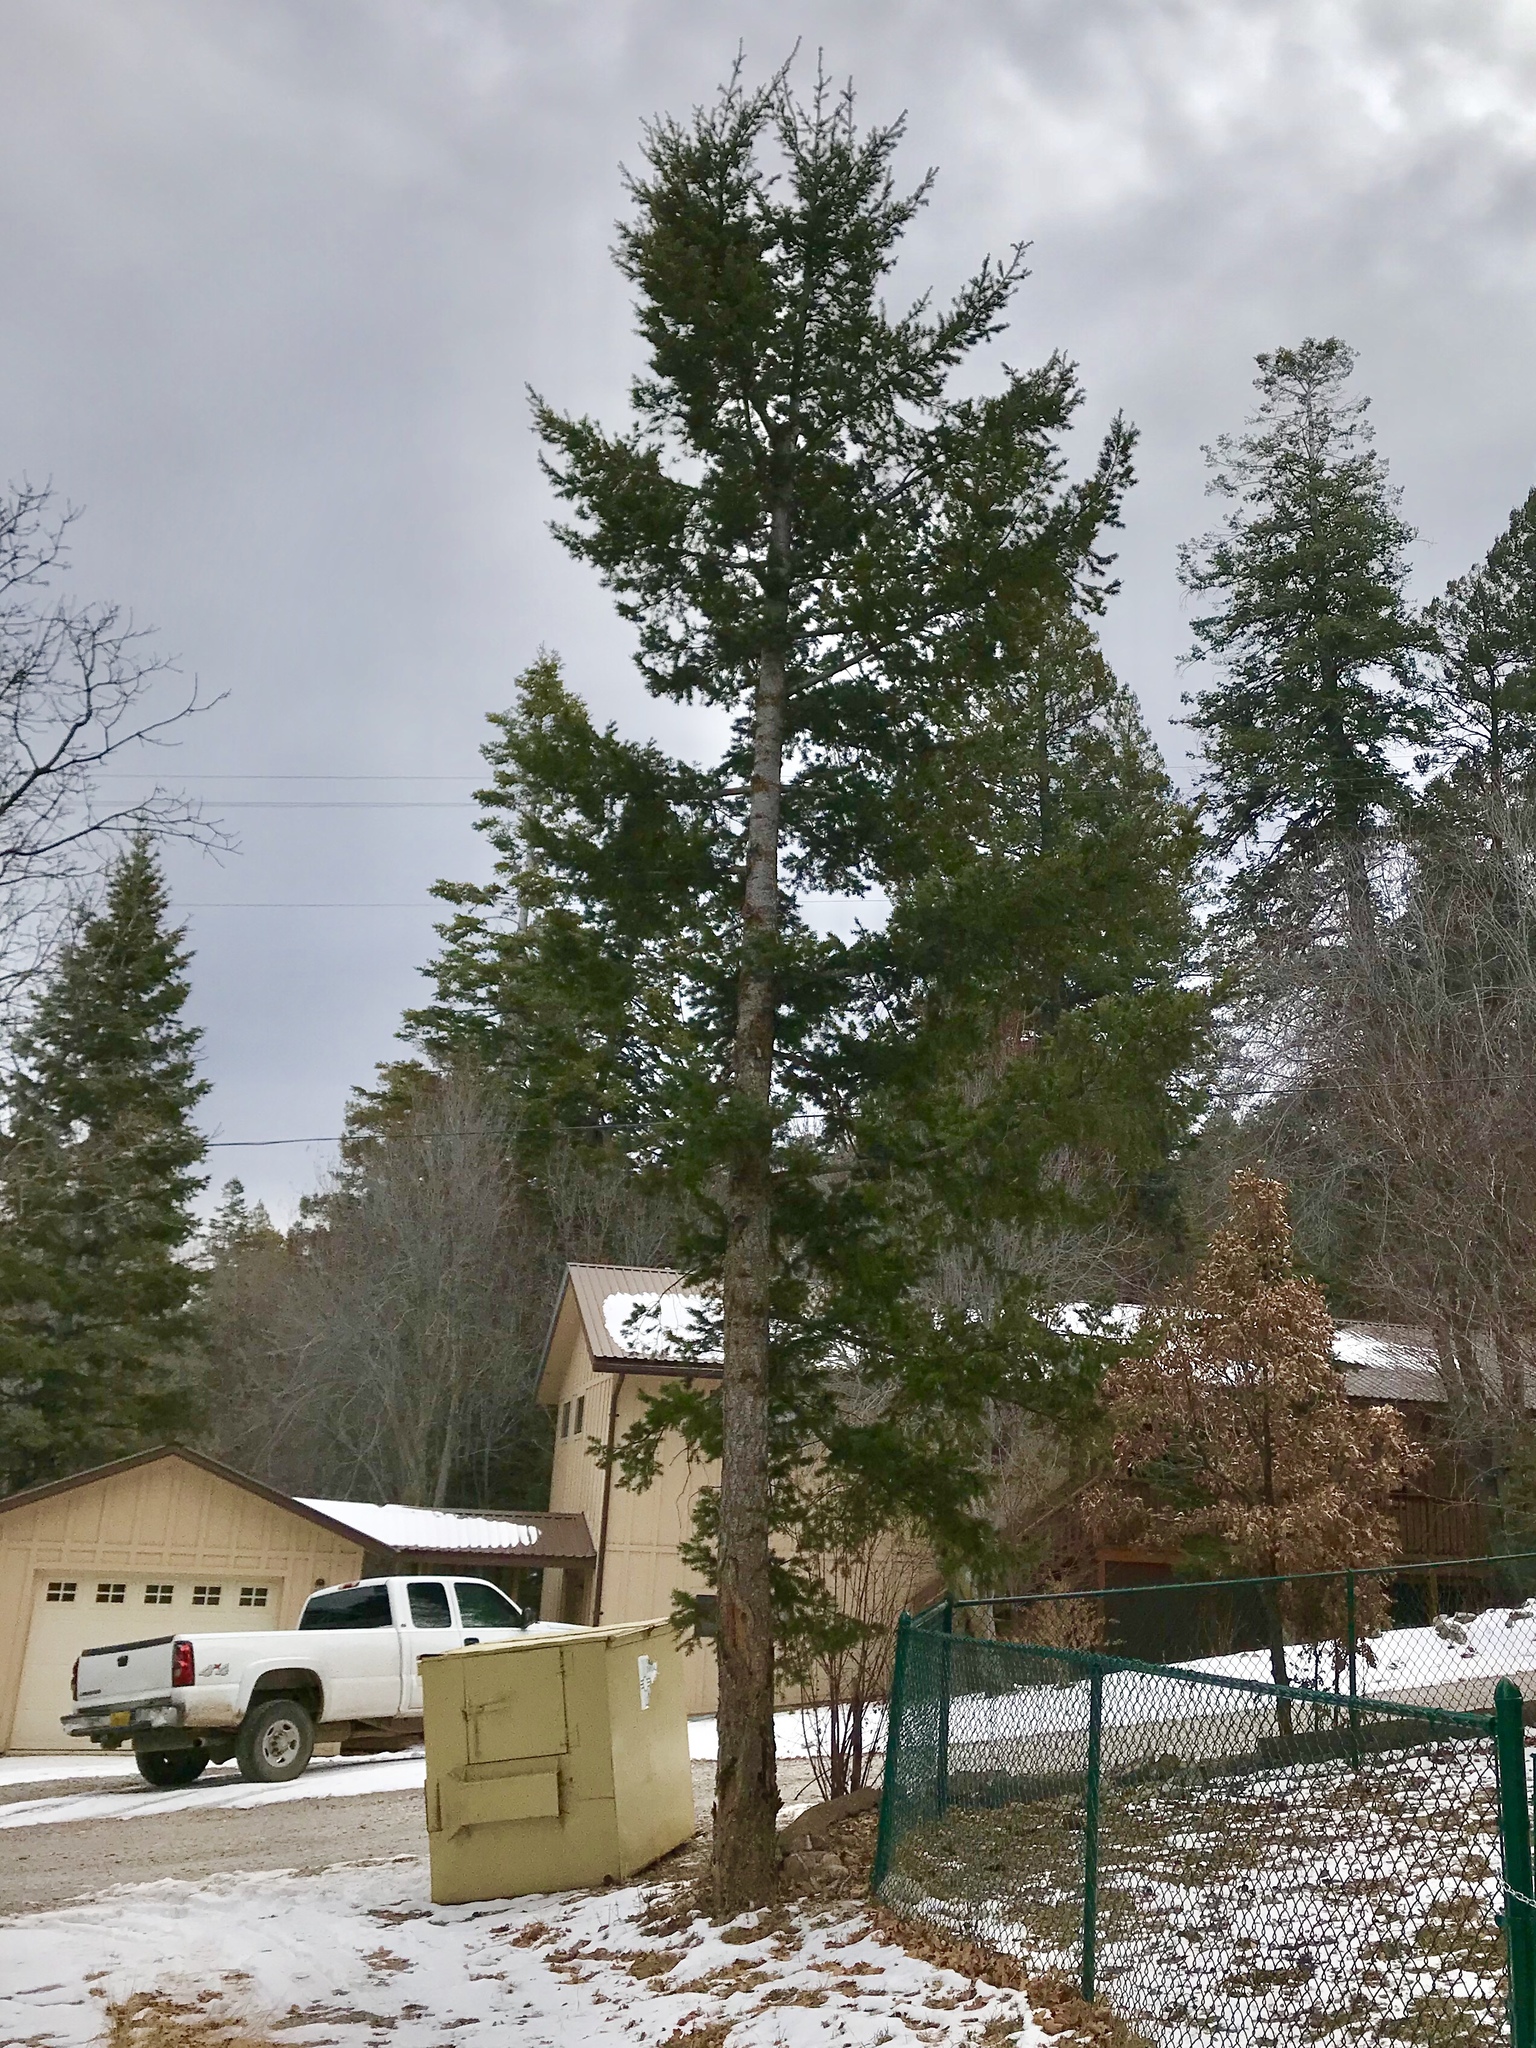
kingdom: Plantae
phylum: Tracheophyta
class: Pinopsida
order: Pinales
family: Pinaceae
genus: Pseudotsuga
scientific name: Pseudotsuga menziesii
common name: Douglas fir
